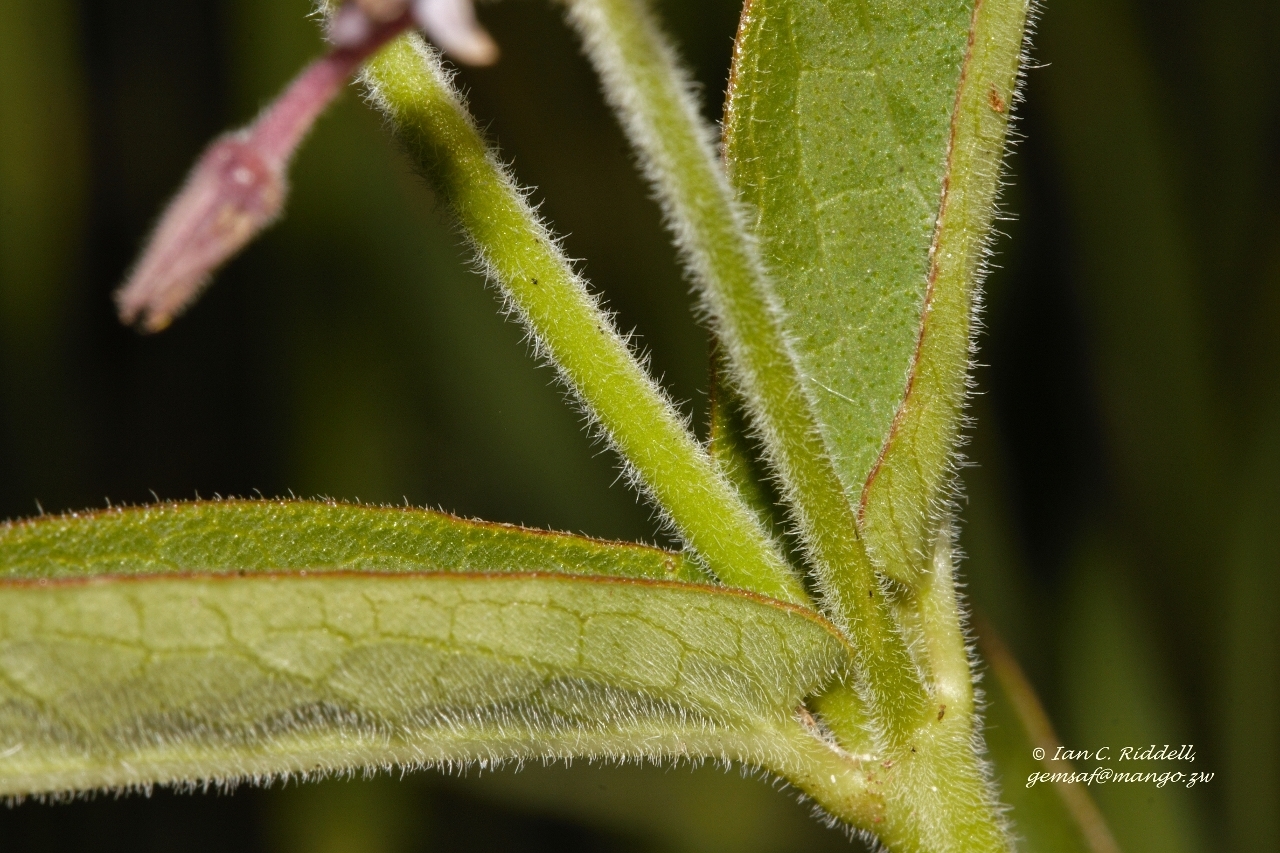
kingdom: Plantae
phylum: Tracheophyta
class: Magnoliopsida
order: Gentianales
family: Apocynaceae
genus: Margaretta
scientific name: Margaretta rosea
